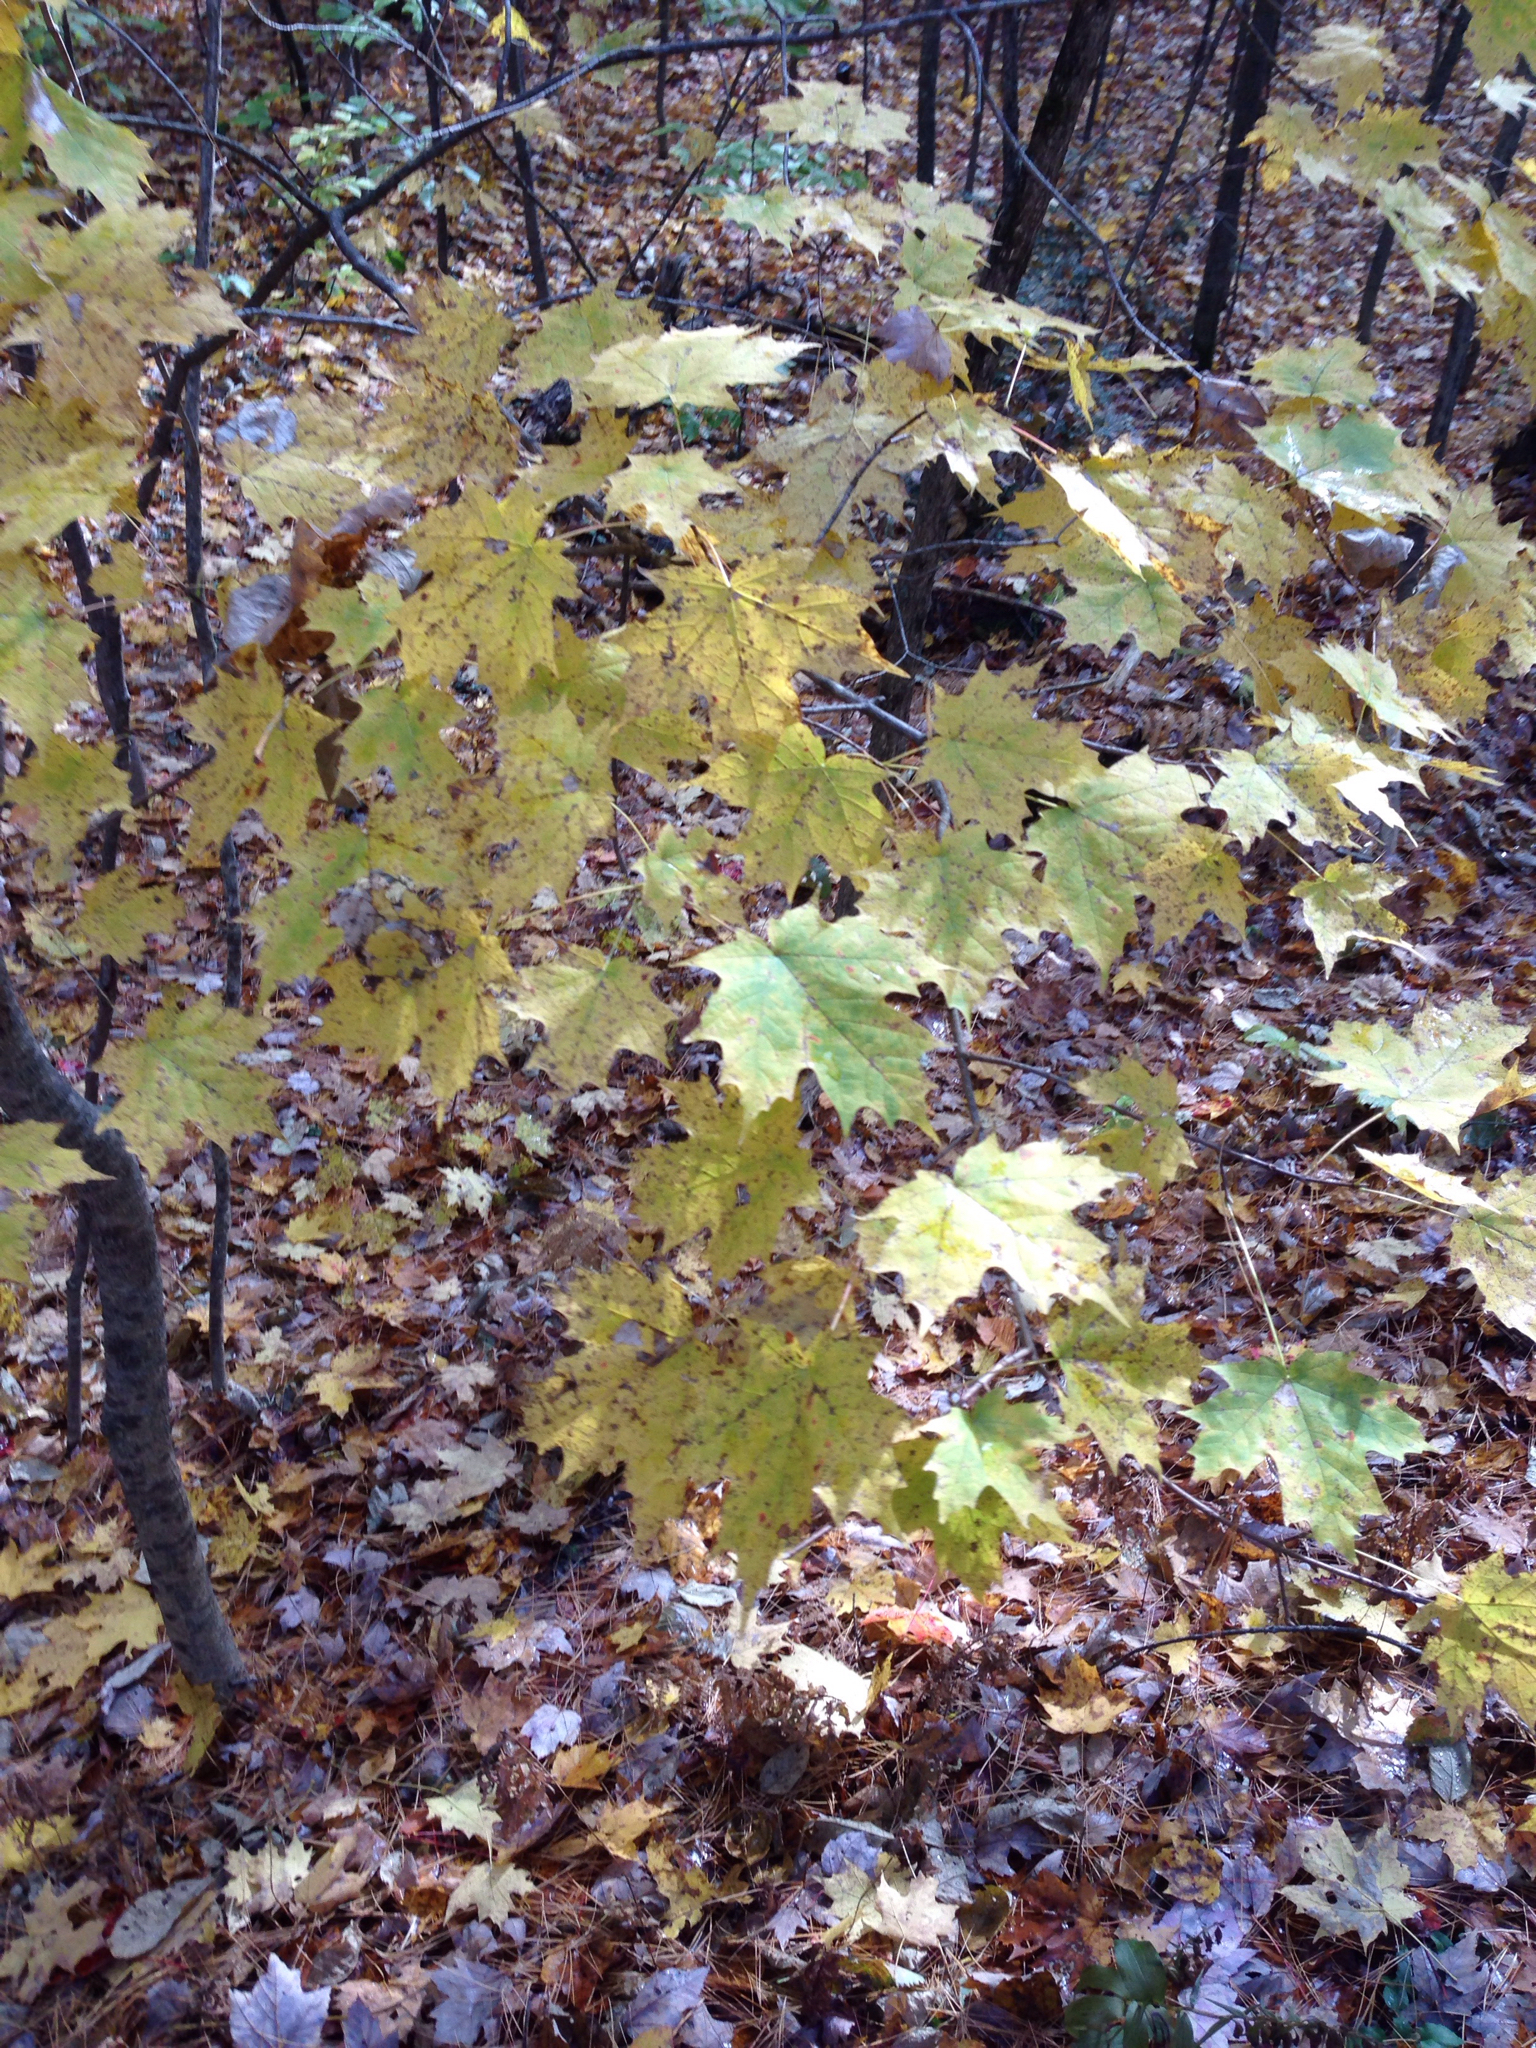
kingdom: Plantae
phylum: Tracheophyta
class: Magnoliopsida
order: Sapindales
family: Sapindaceae
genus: Acer
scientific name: Acer saccharum
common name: Sugar maple
